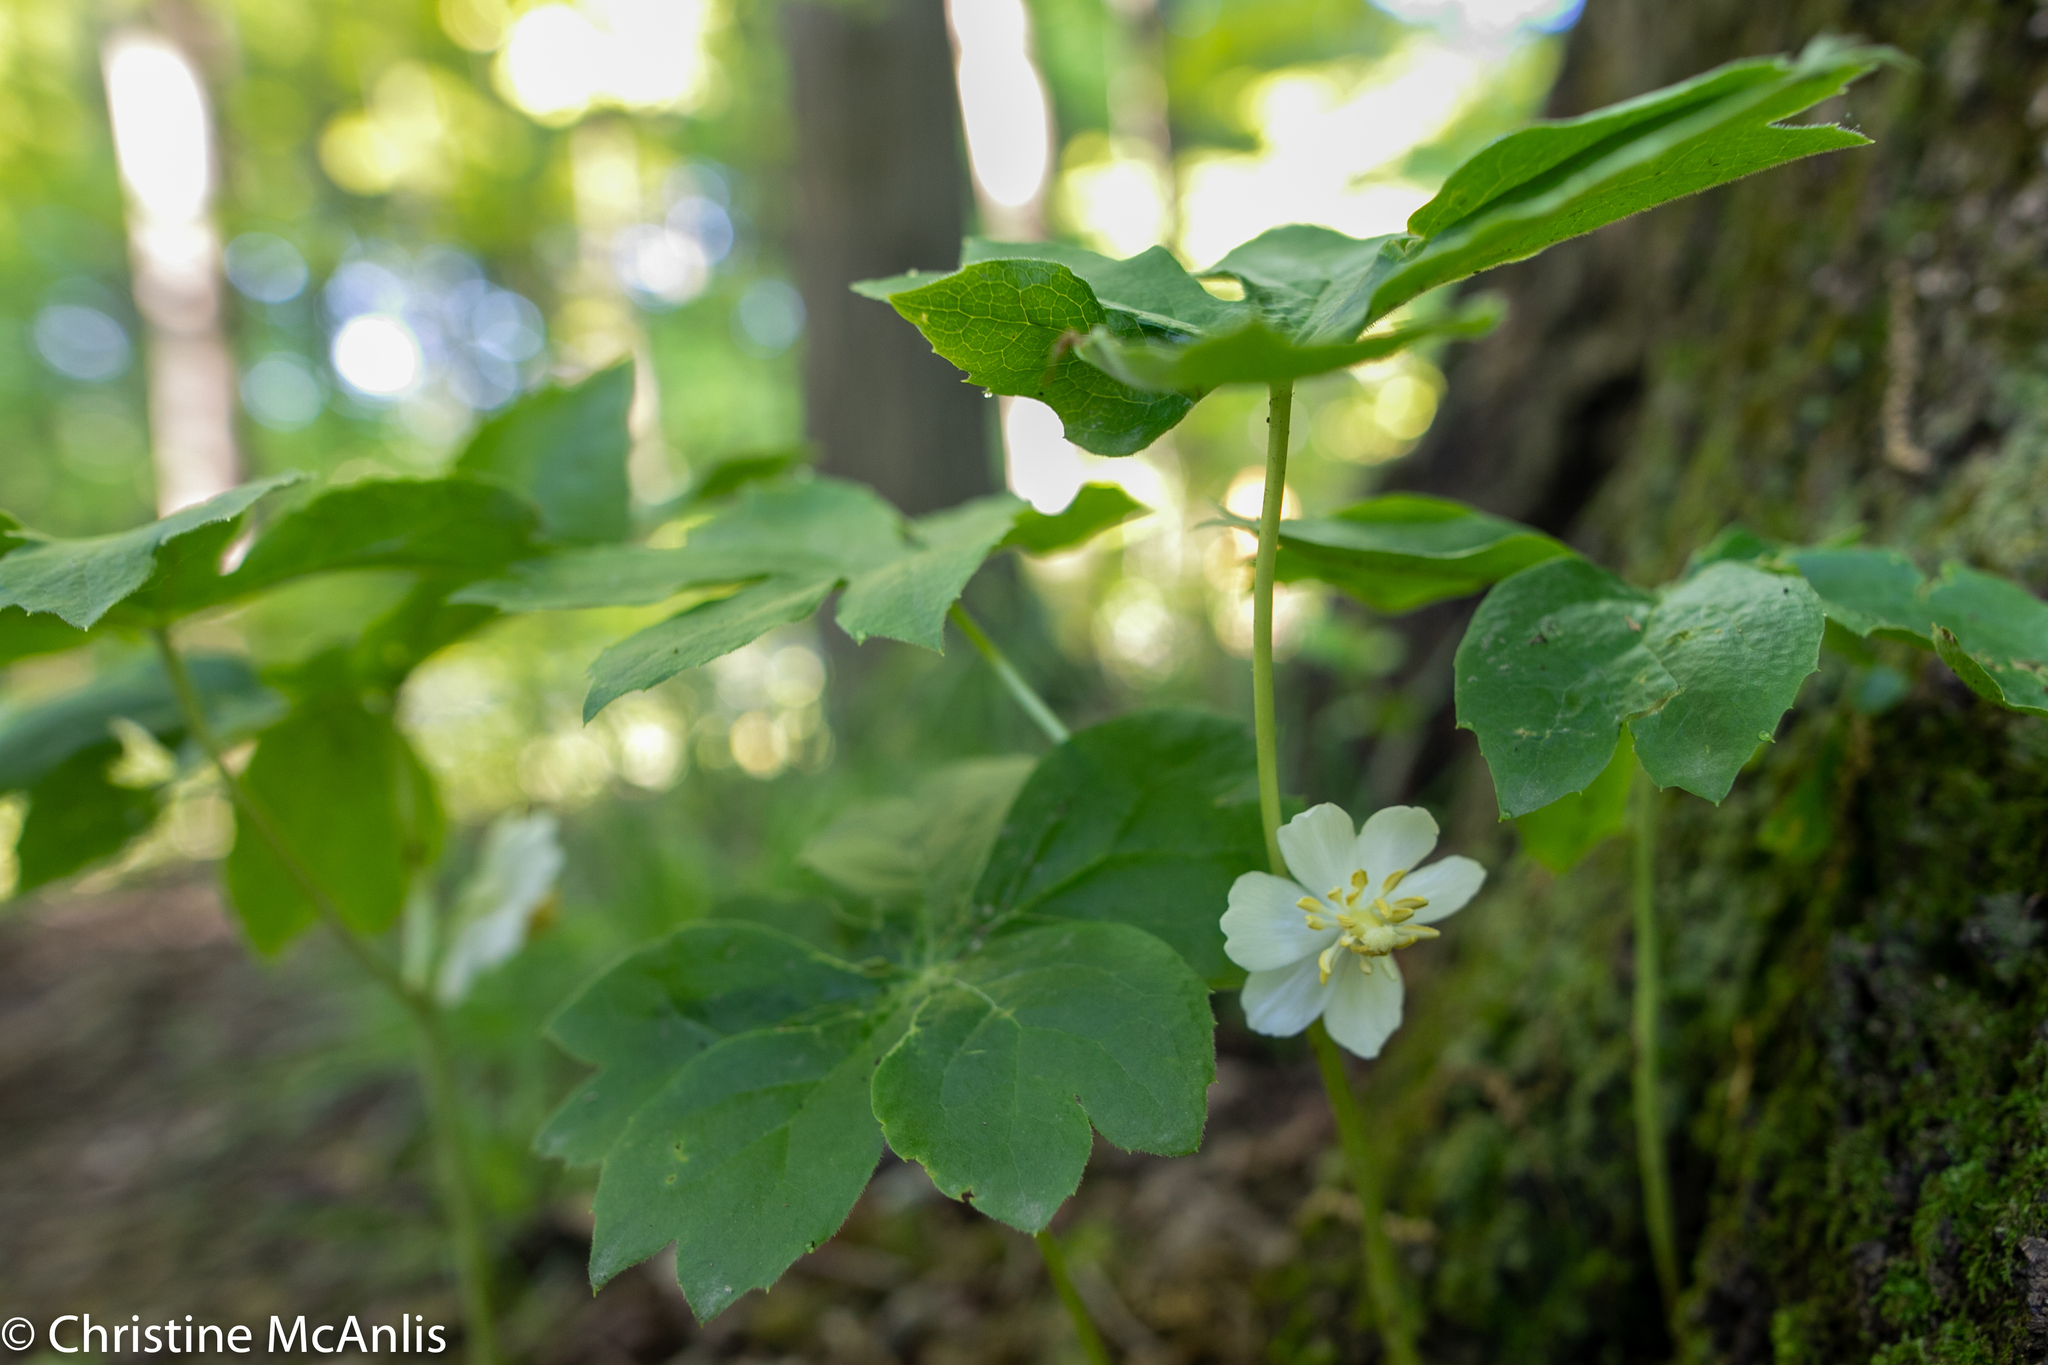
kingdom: Plantae
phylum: Tracheophyta
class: Magnoliopsida
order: Ranunculales
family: Berberidaceae
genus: Podophyllum
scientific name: Podophyllum peltatum
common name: Wild mandrake
